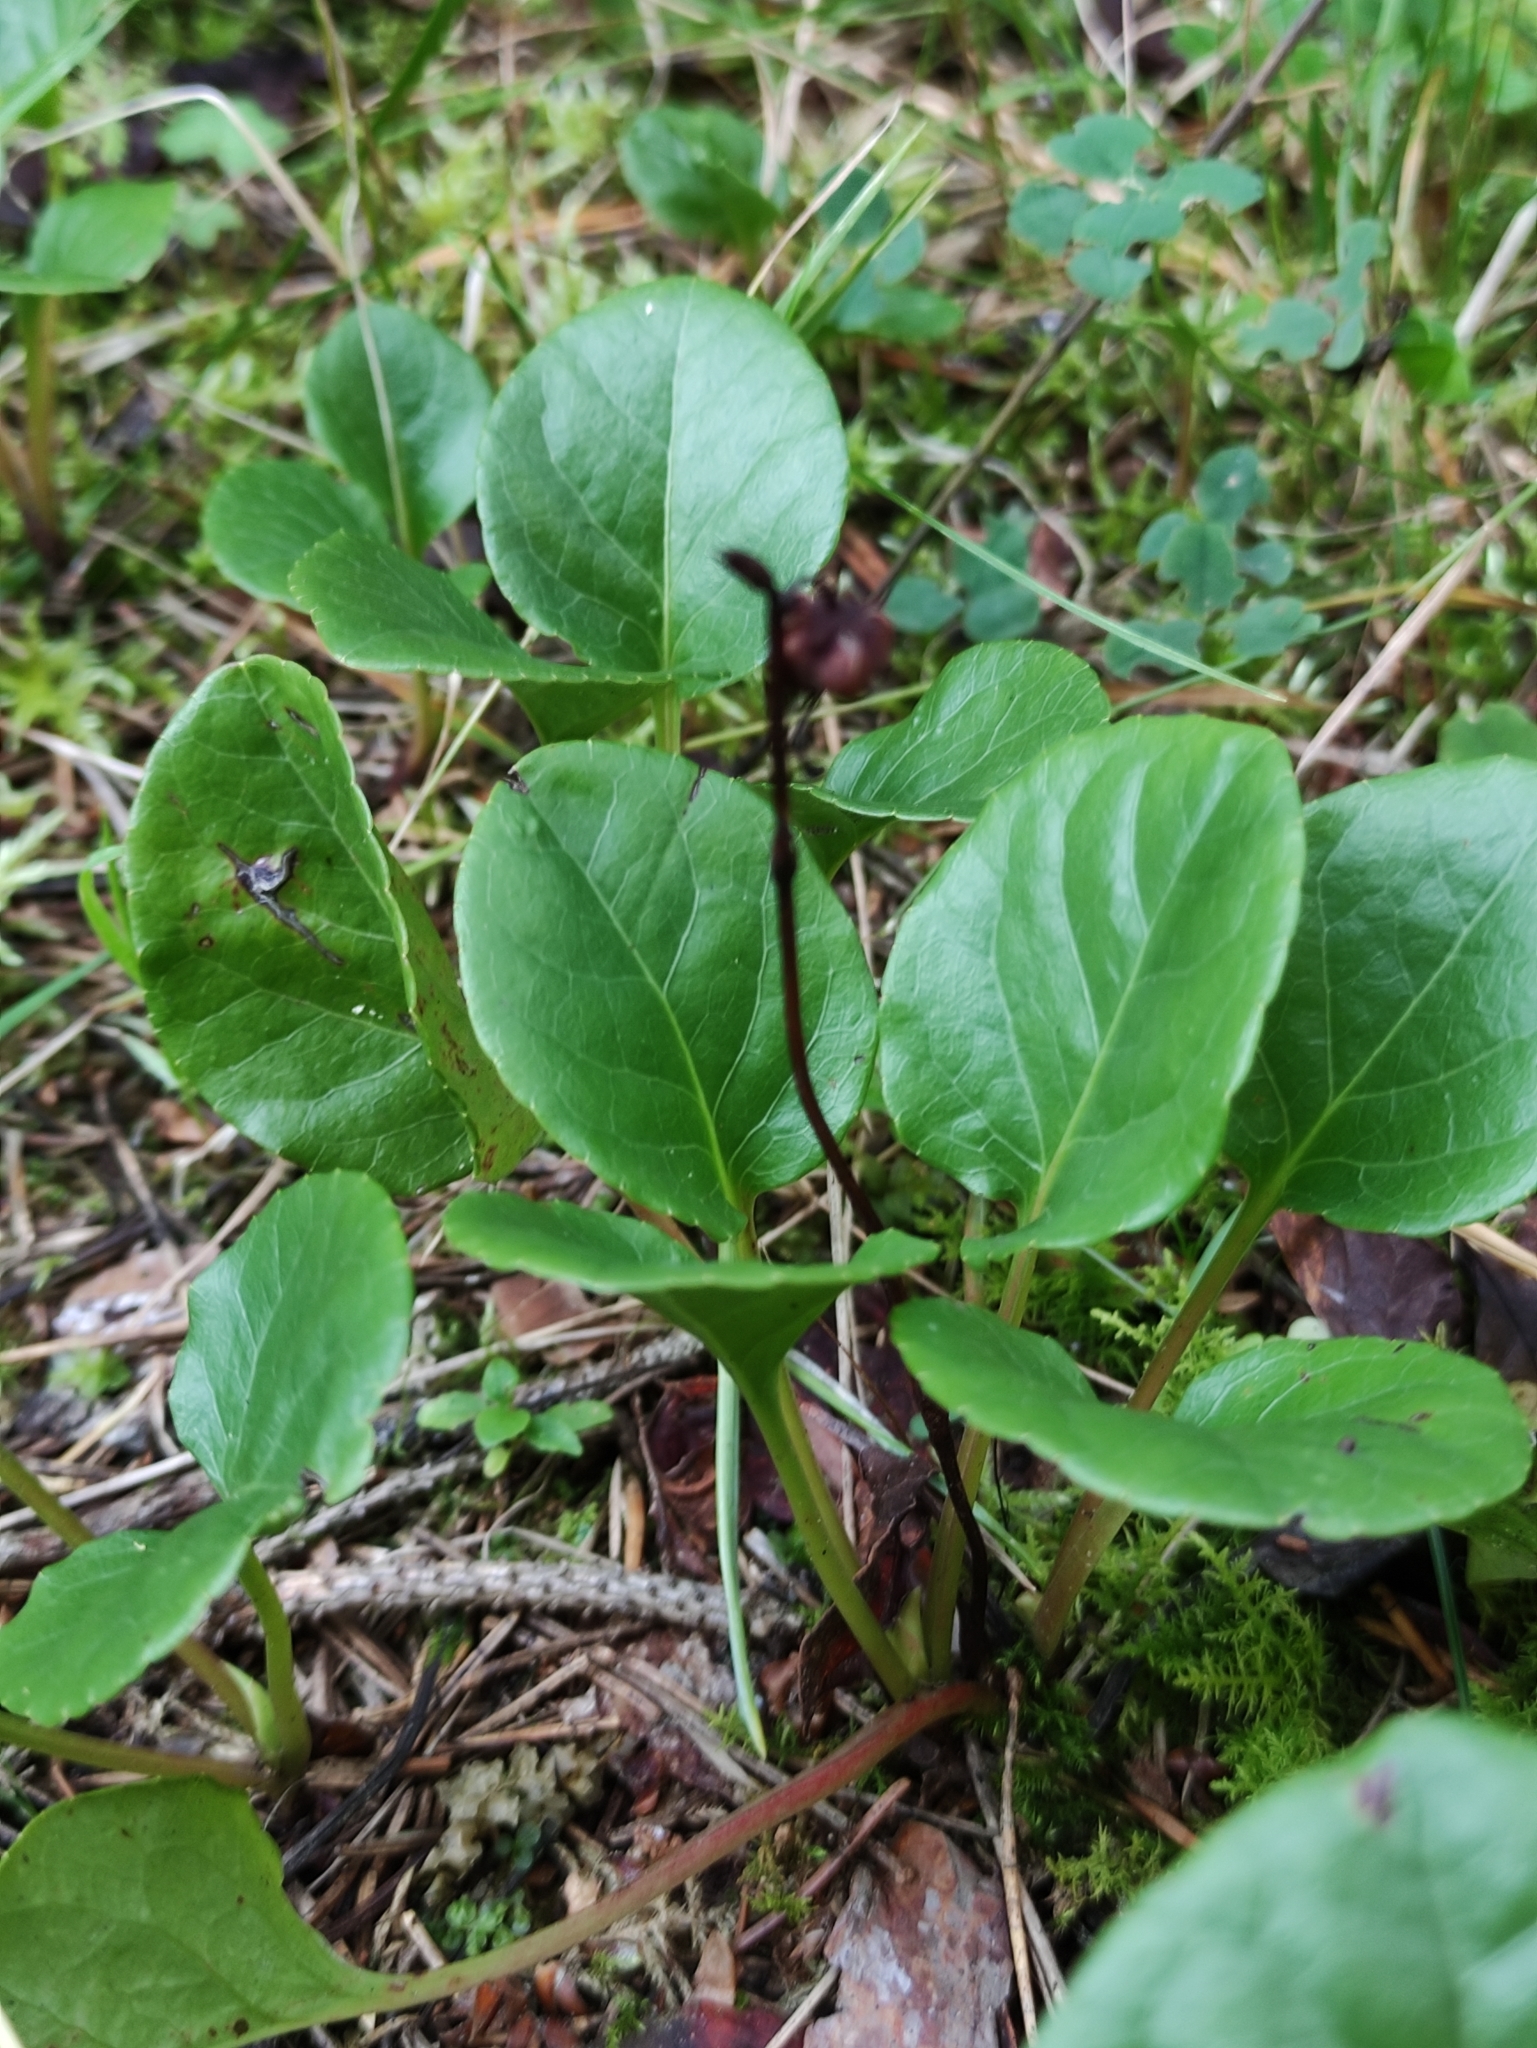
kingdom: Plantae
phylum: Tracheophyta
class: Magnoliopsida
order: Ericales
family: Ericaceae
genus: Pyrola
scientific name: Pyrola rotundifolia
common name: Round-leaved wintergreen
